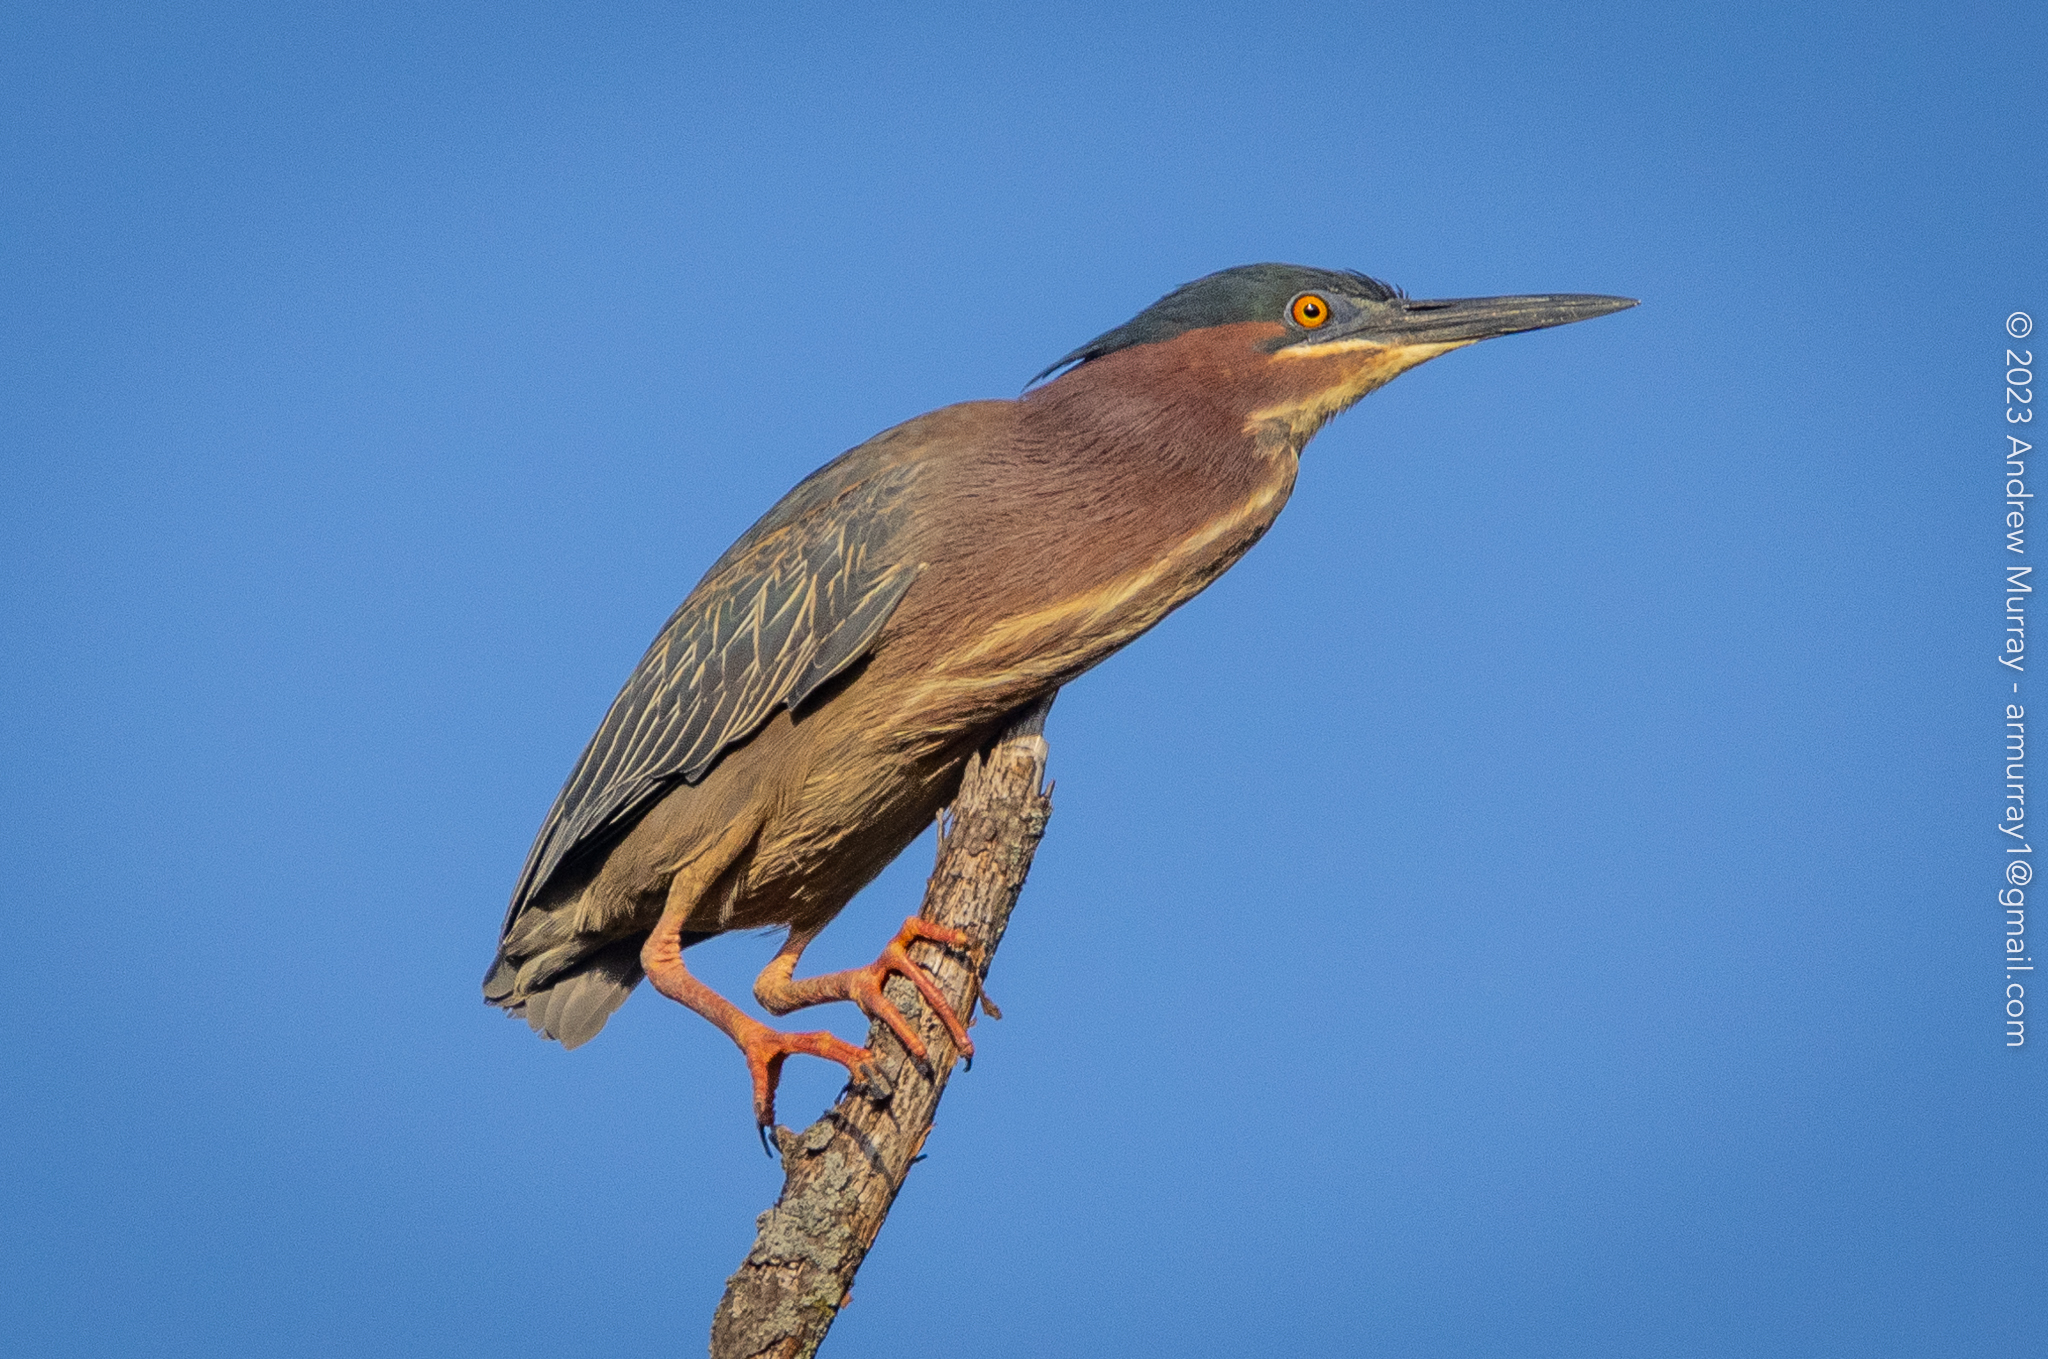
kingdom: Animalia
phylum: Chordata
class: Aves
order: Pelecaniformes
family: Ardeidae
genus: Butorides
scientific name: Butorides virescens
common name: Green heron
